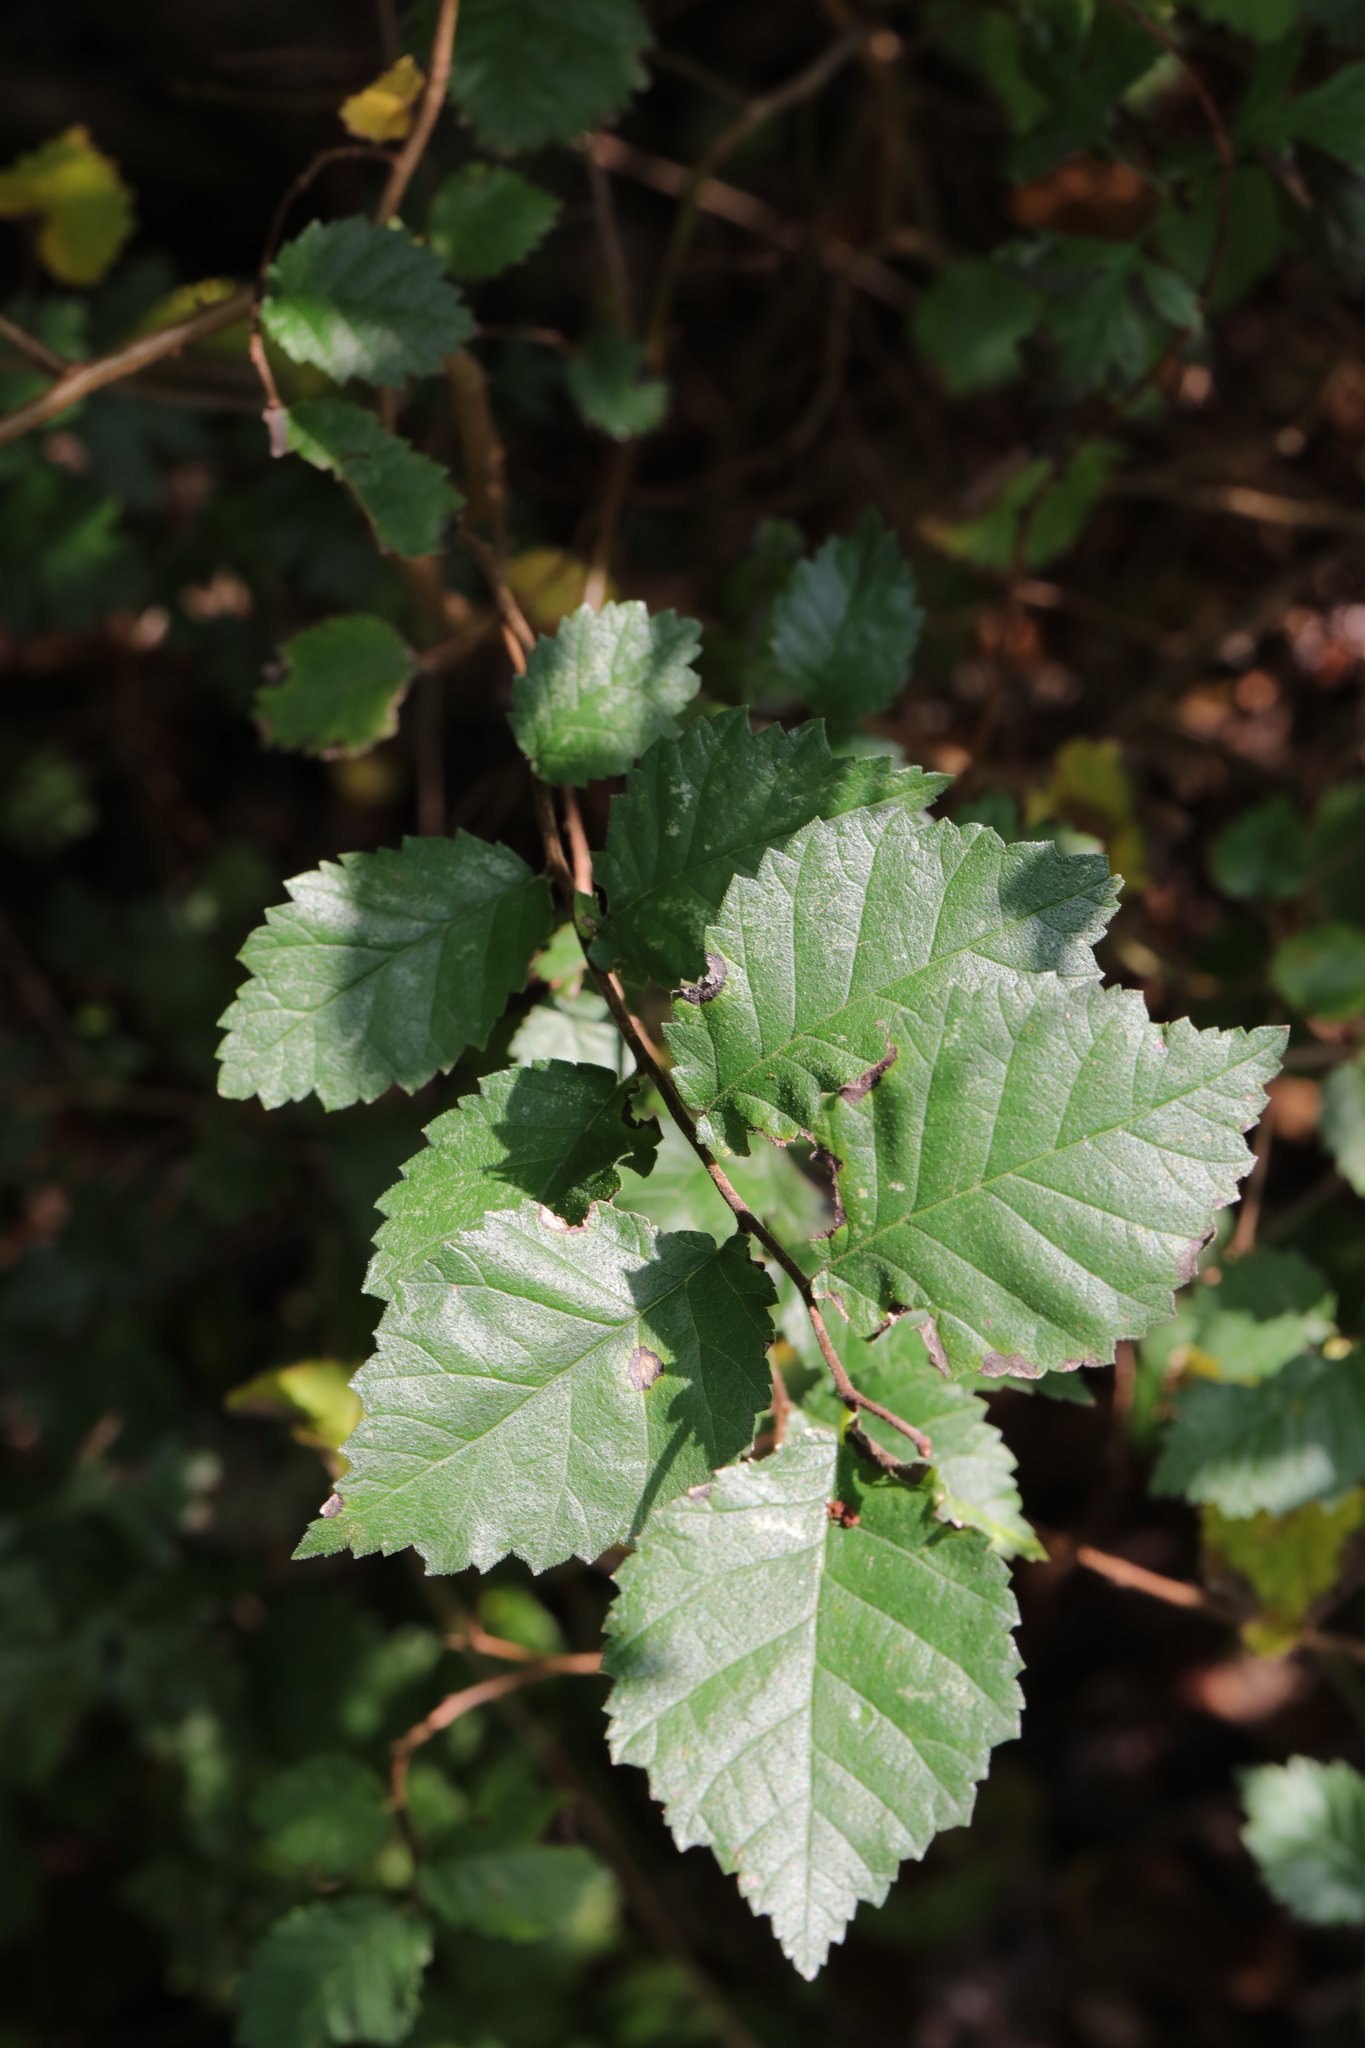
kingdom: Plantae
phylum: Tracheophyta
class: Magnoliopsida
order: Rosales
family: Ulmaceae
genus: Ulmus
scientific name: Ulmus minor
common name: Small-leaved elm
